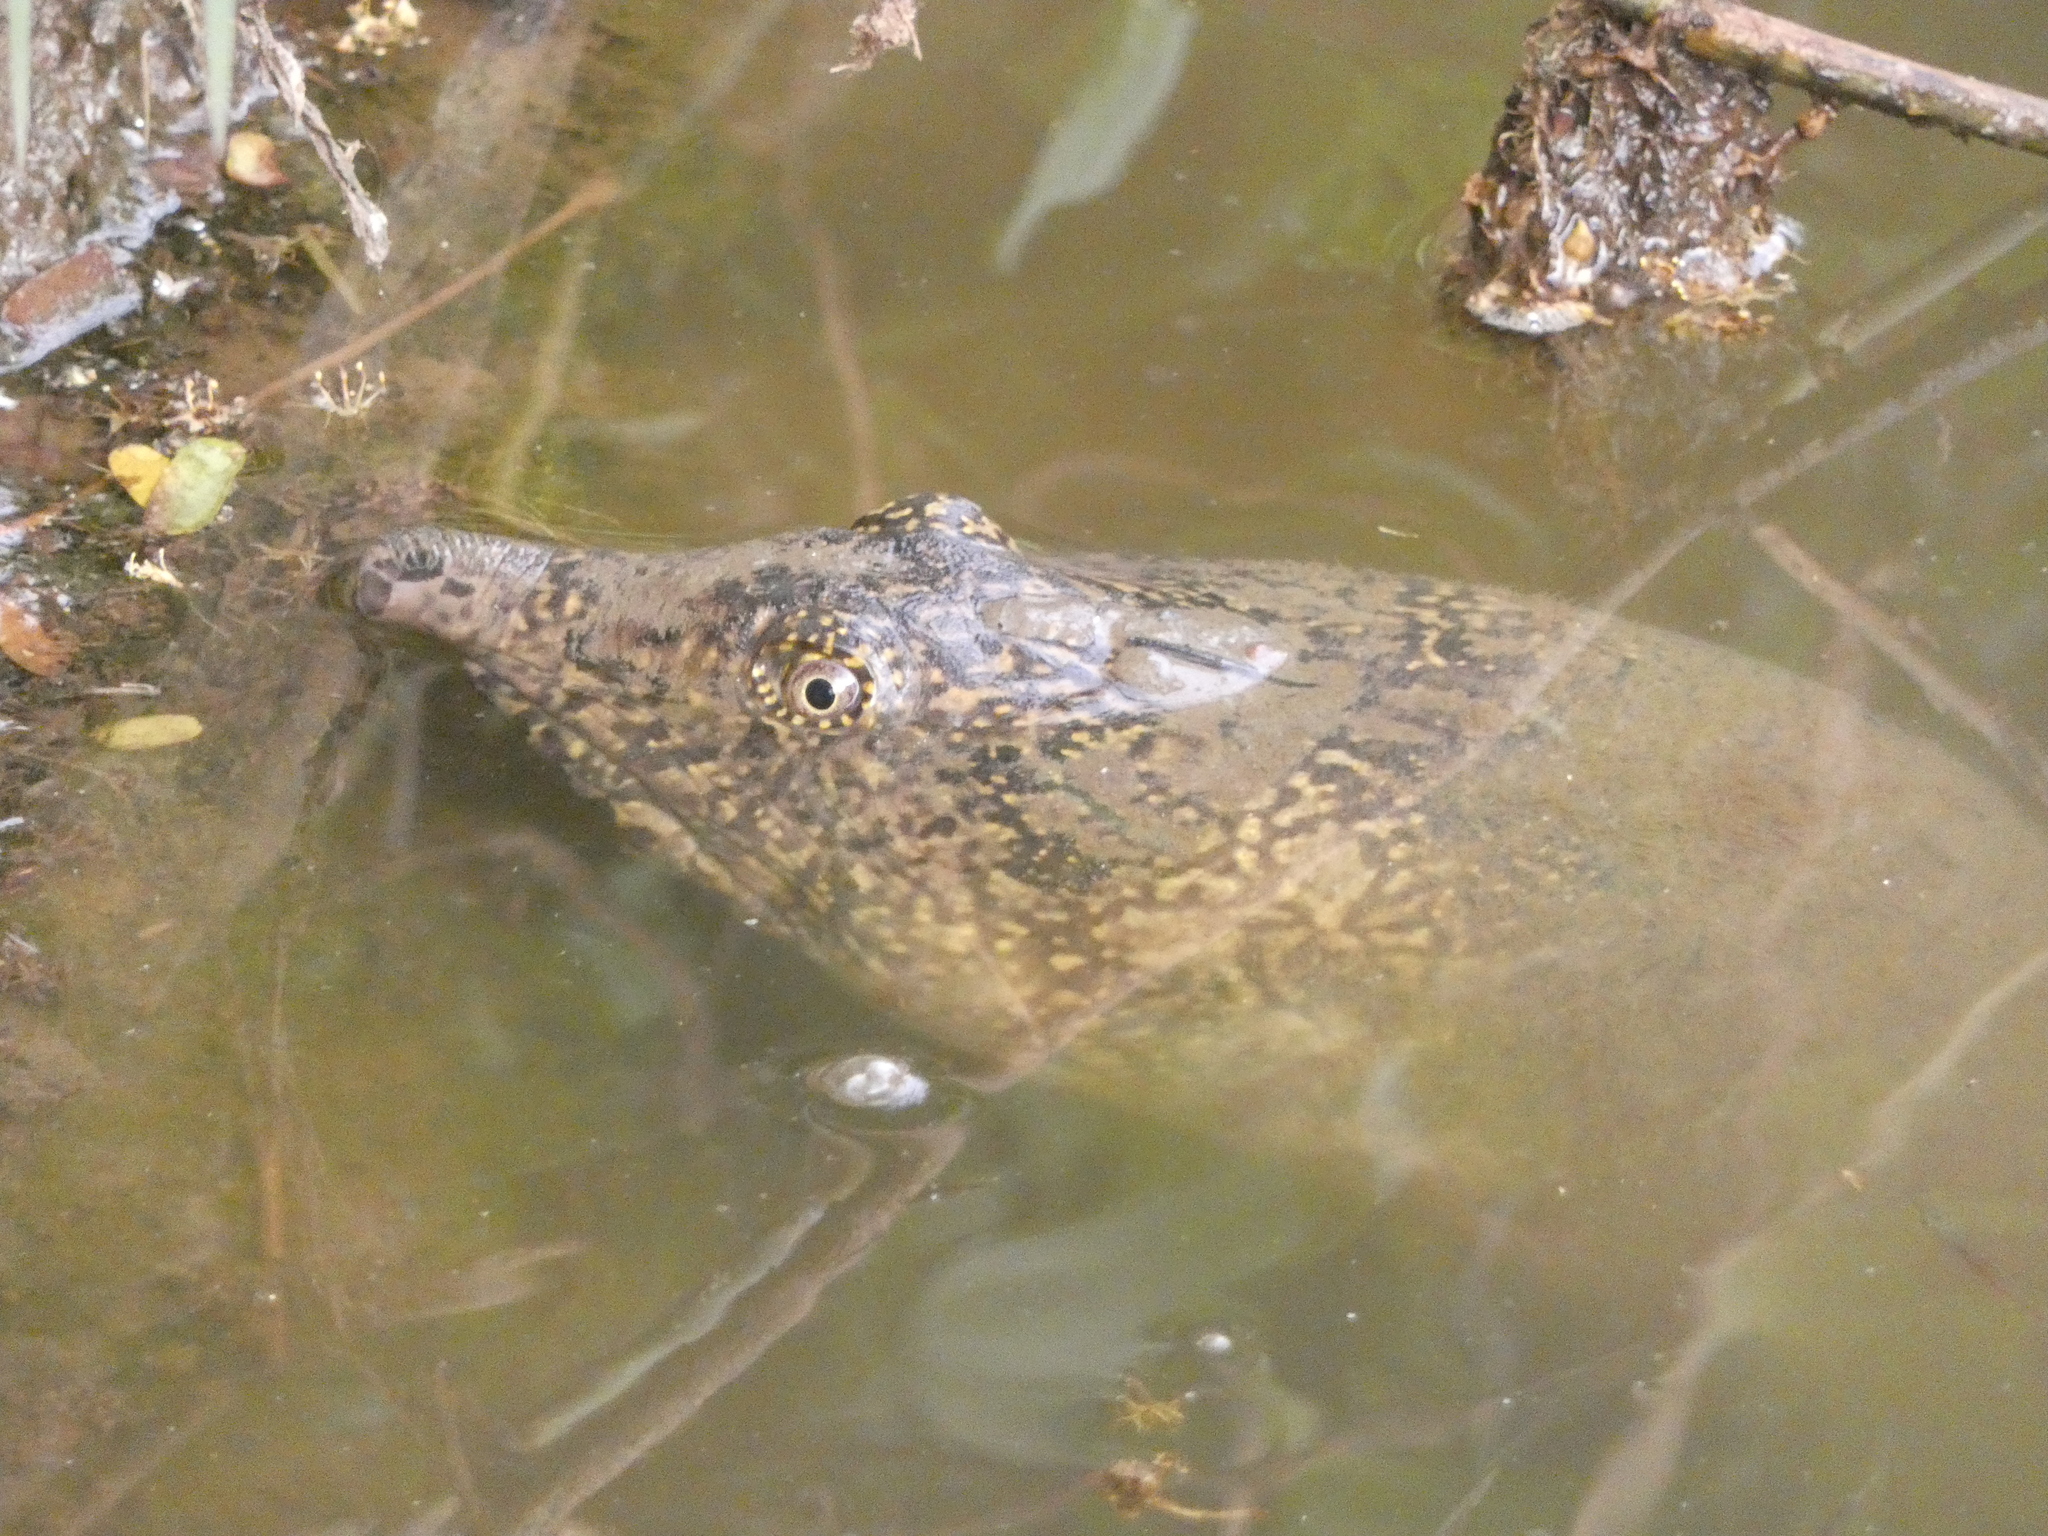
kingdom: Animalia
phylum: Chordata
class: Testudines
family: Trionychidae
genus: Amyda
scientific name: Amyda ornata
